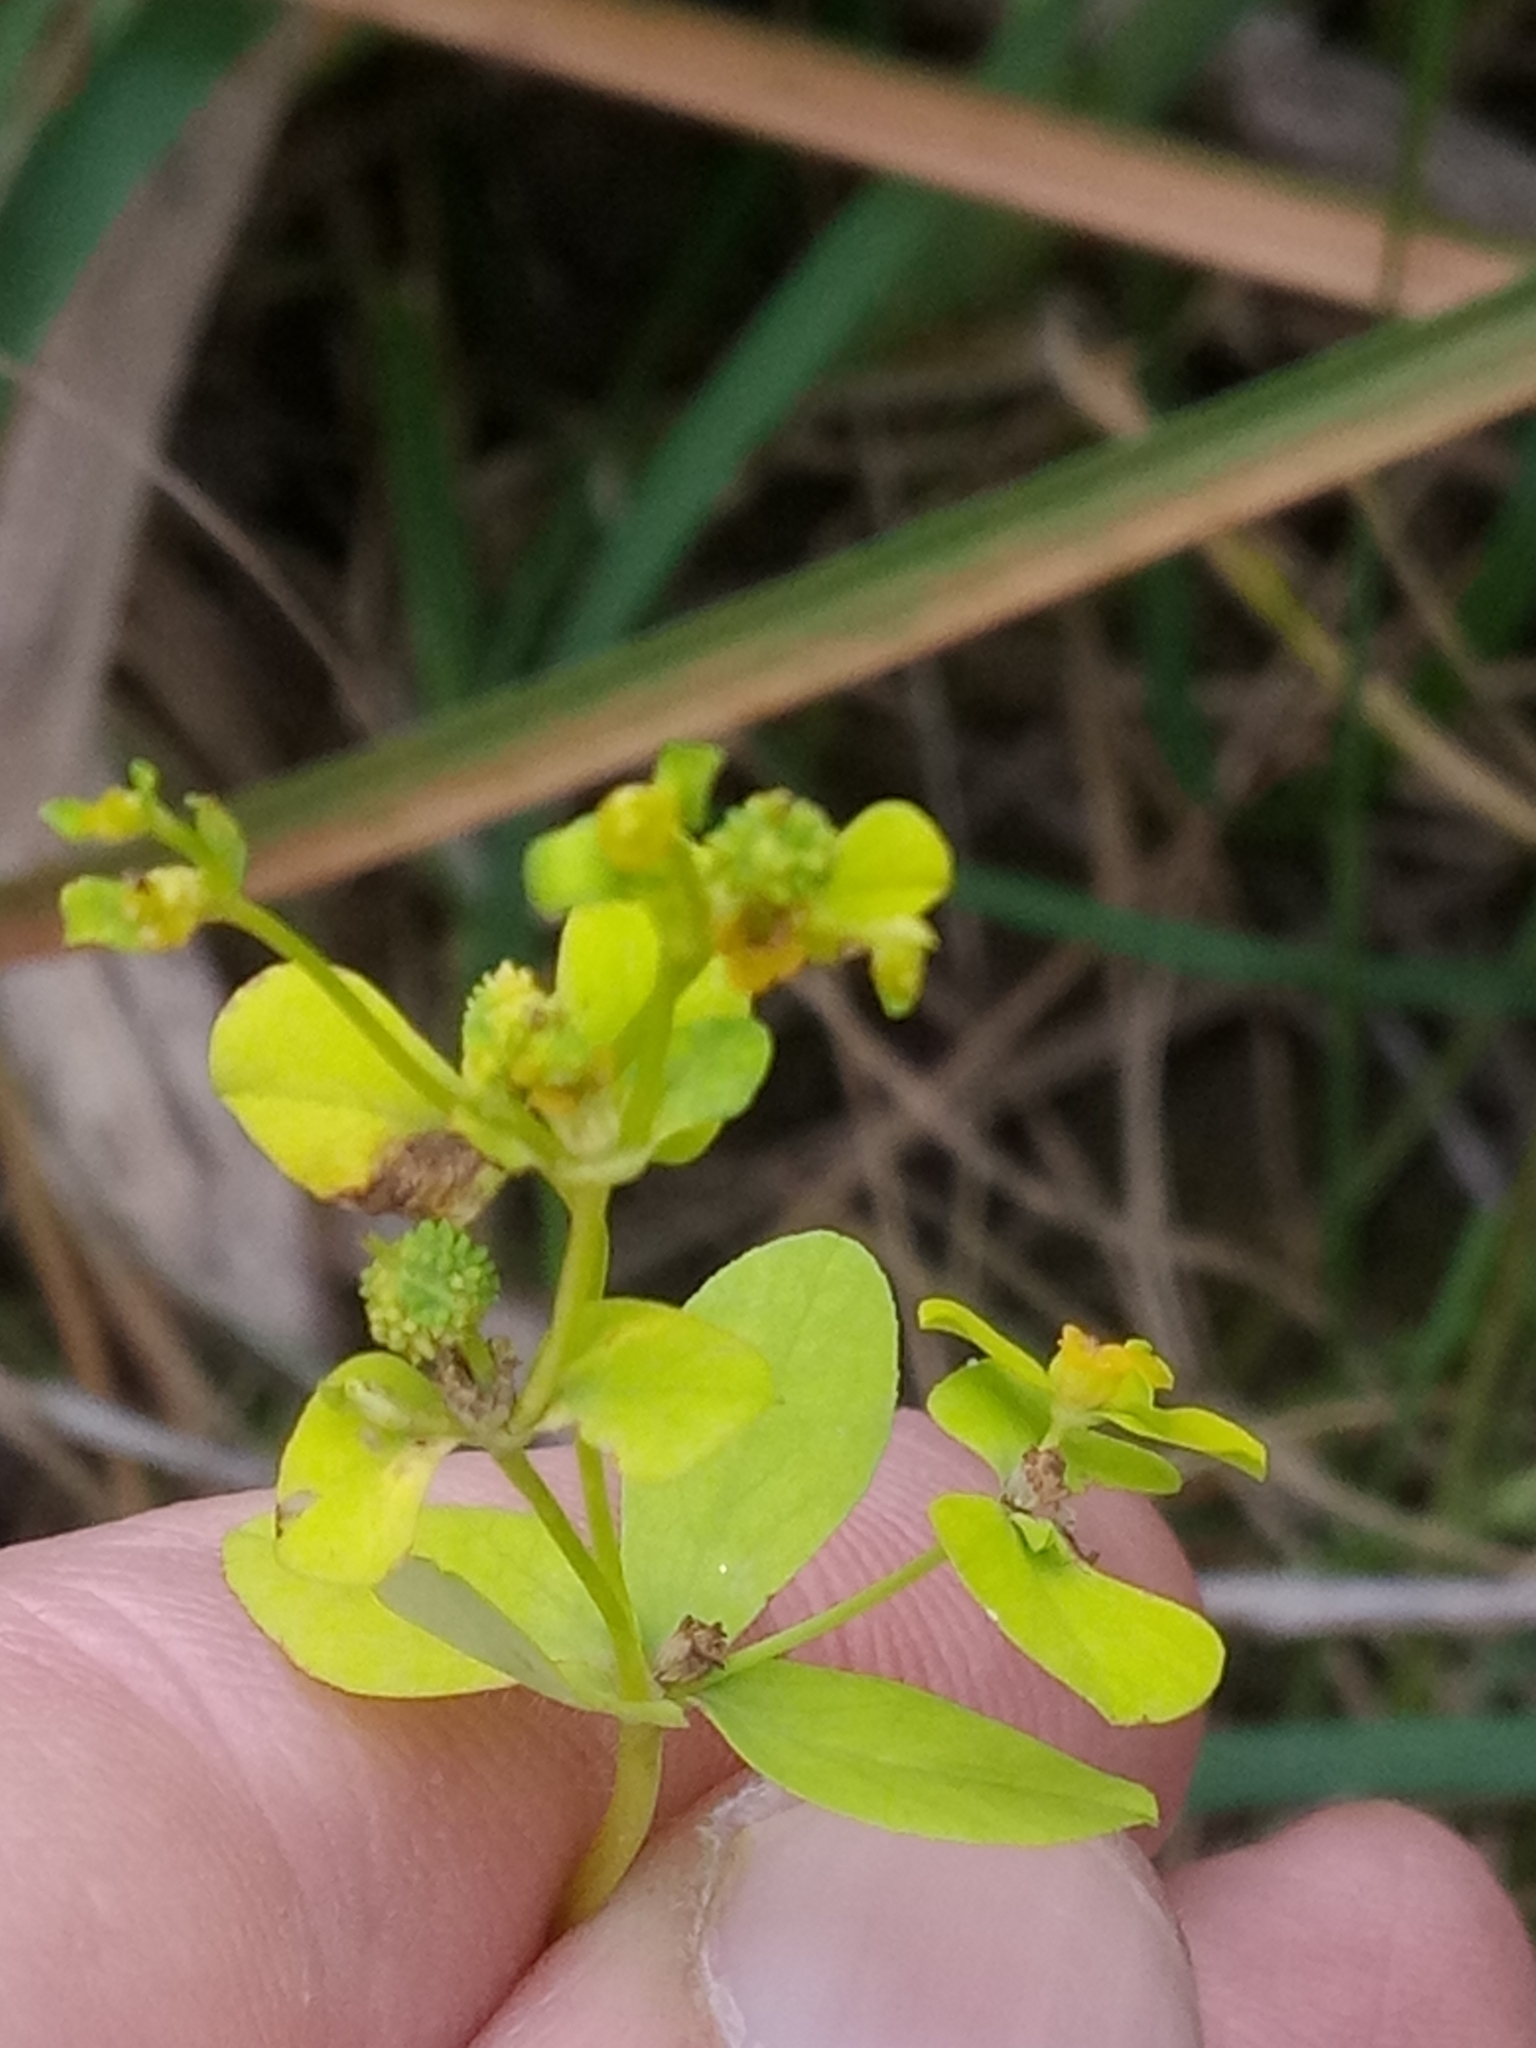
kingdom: Plantae
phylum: Tracheophyta
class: Magnoliopsida
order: Malpighiales
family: Euphorbiaceae
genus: Euphorbia
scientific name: Euphorbia cossoniana
